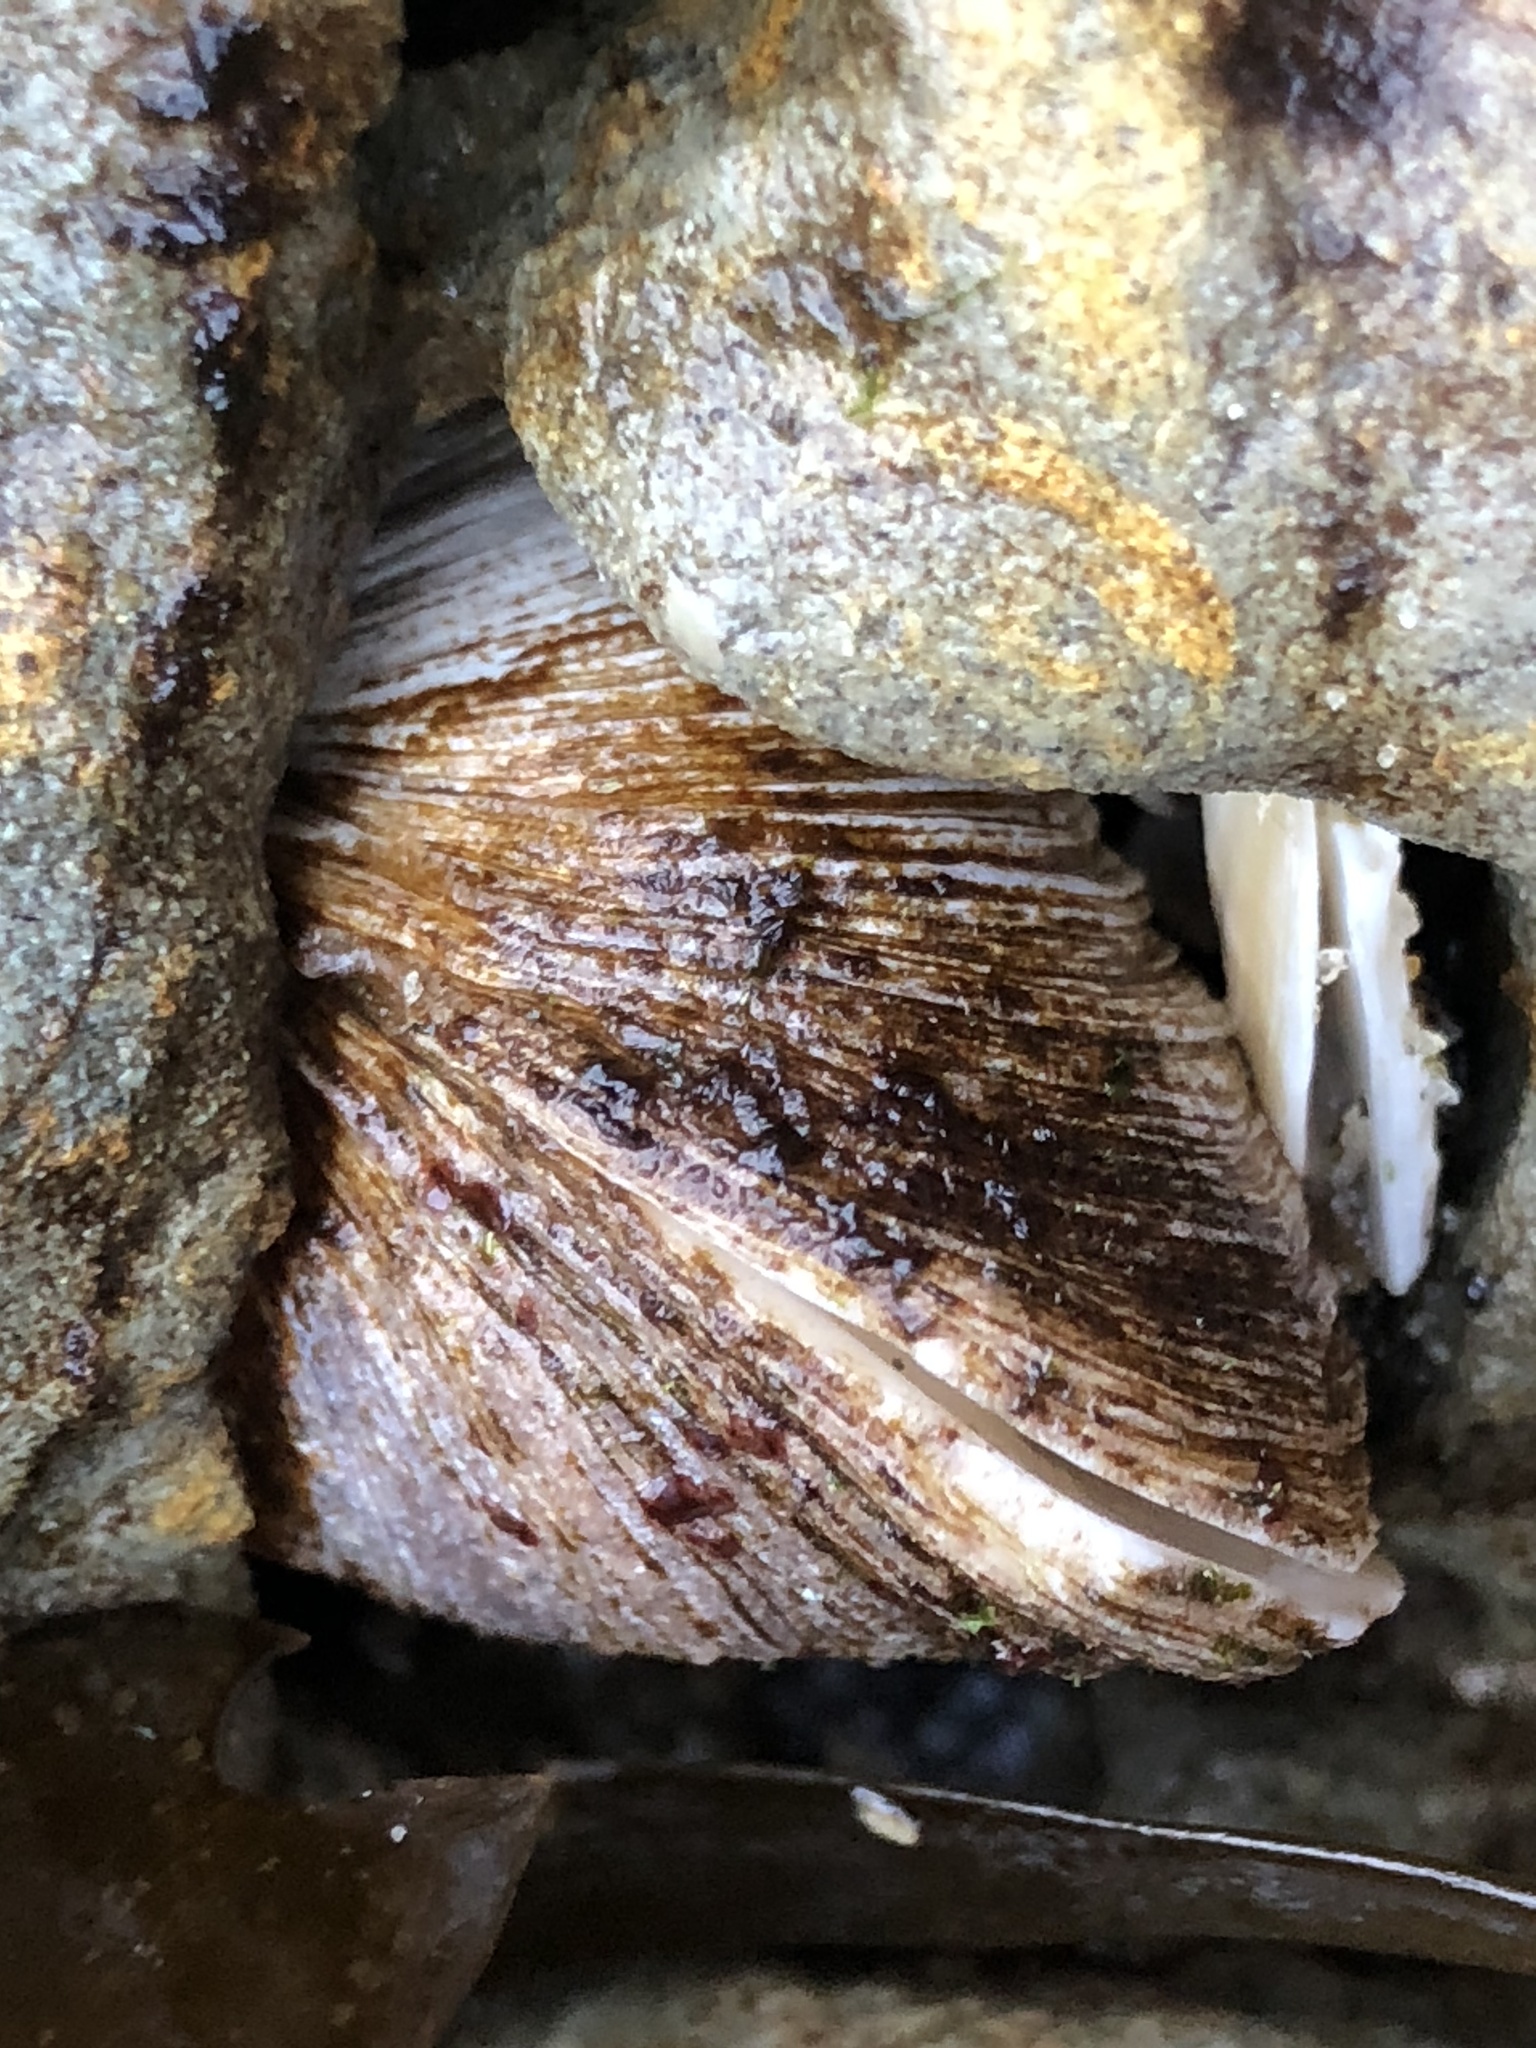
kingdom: Animalia
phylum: Mollusca
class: Bivalvia
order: Myida
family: Myidae
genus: Platyodon
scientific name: Platyodon cancellatus
